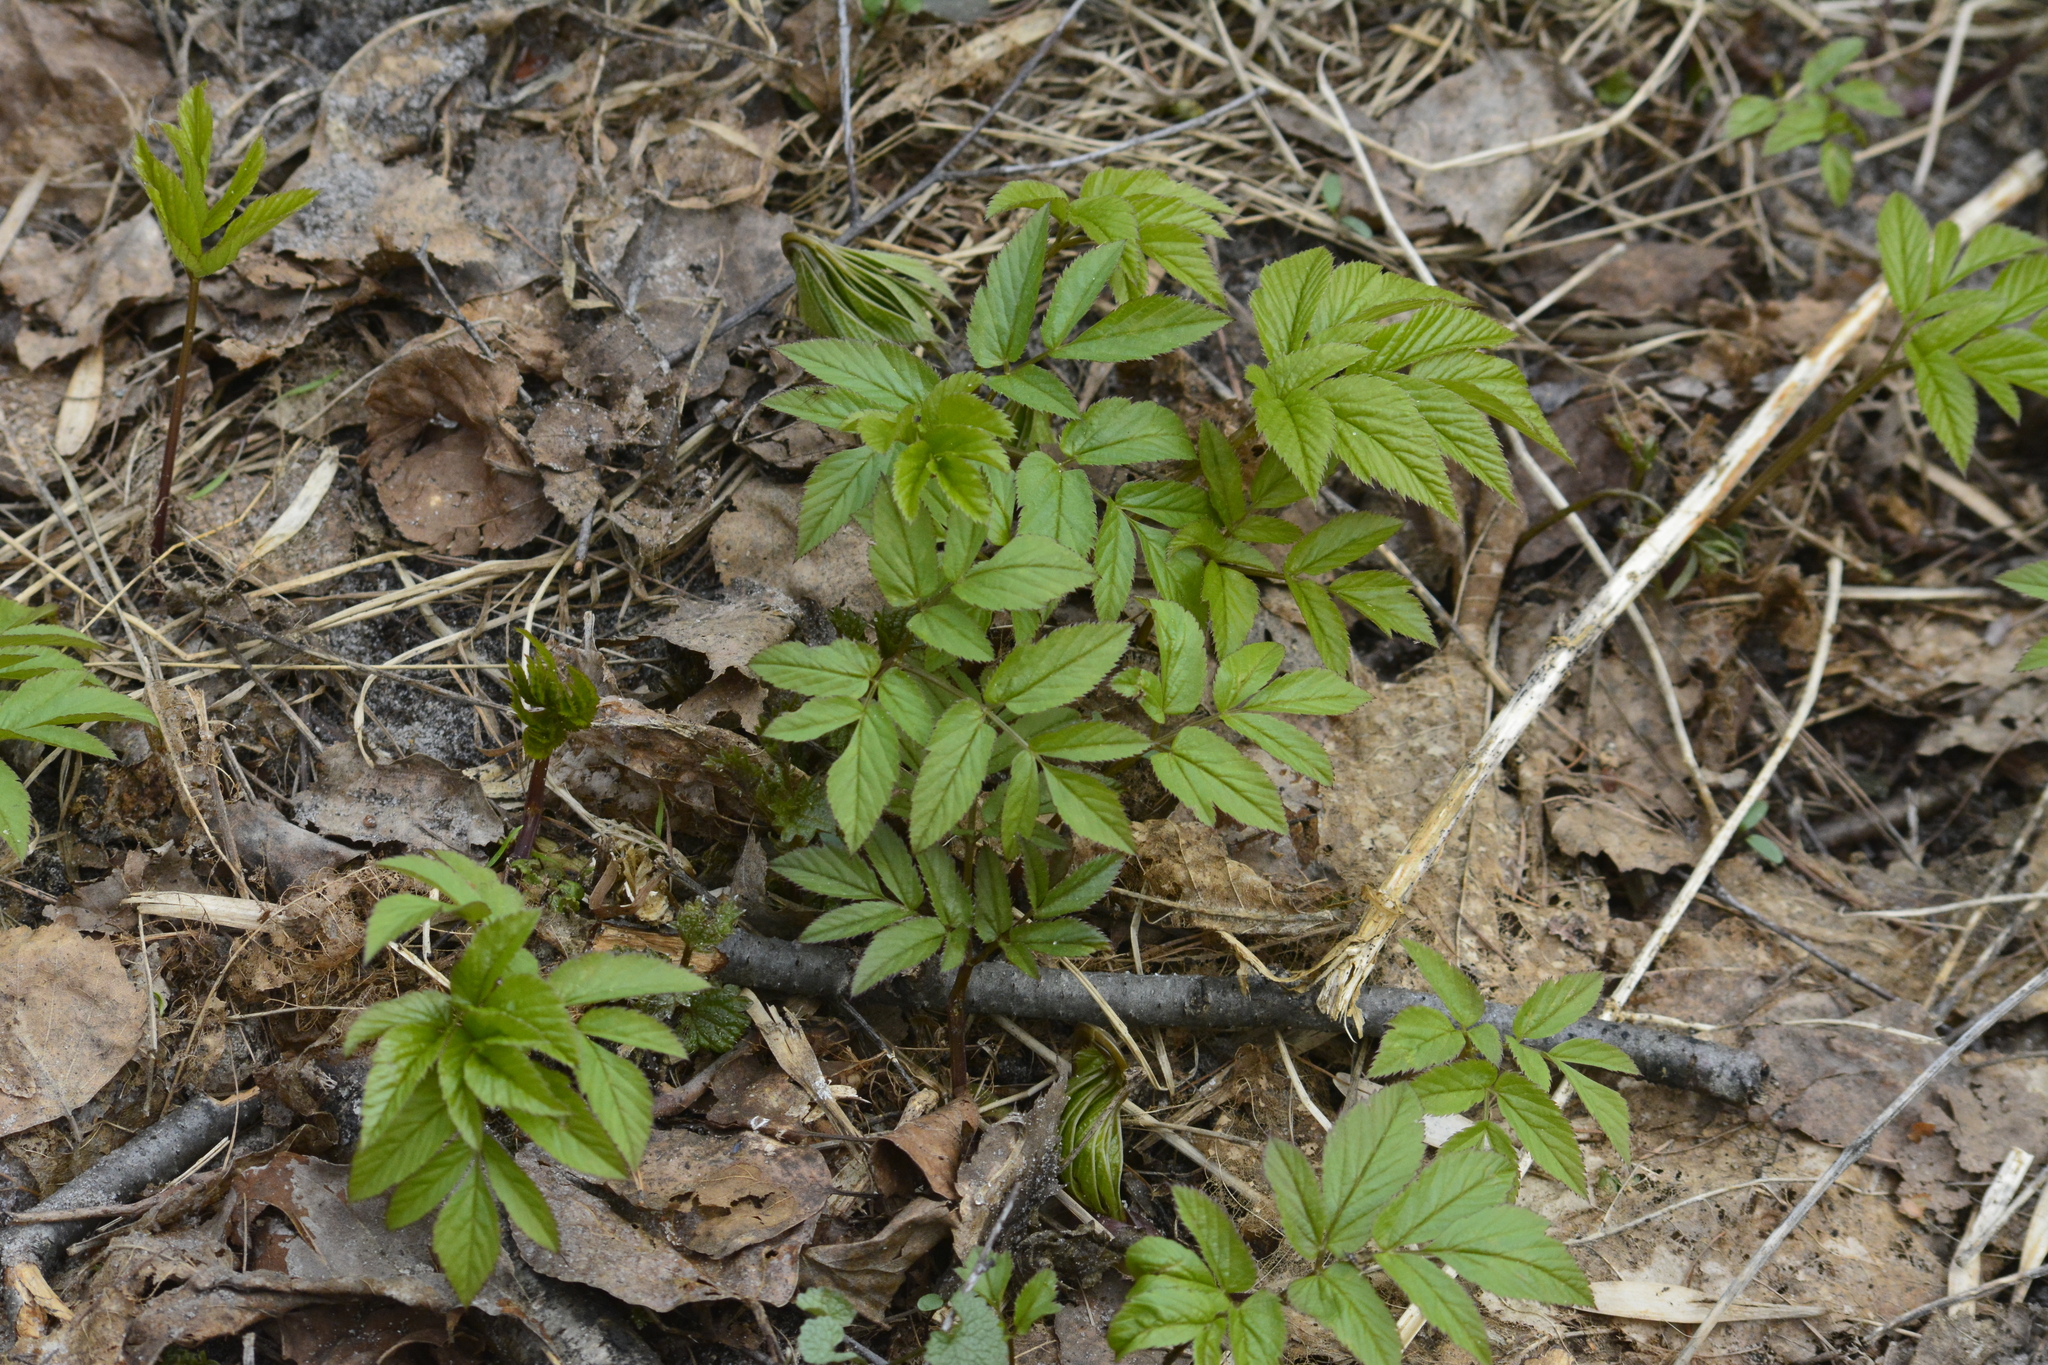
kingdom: Plantae
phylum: Tracheophyta
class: Magnoliopsida
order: Apiales
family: Apiaceae
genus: Aegopodium
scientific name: Aegopodium podagraria
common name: Ground-elder
